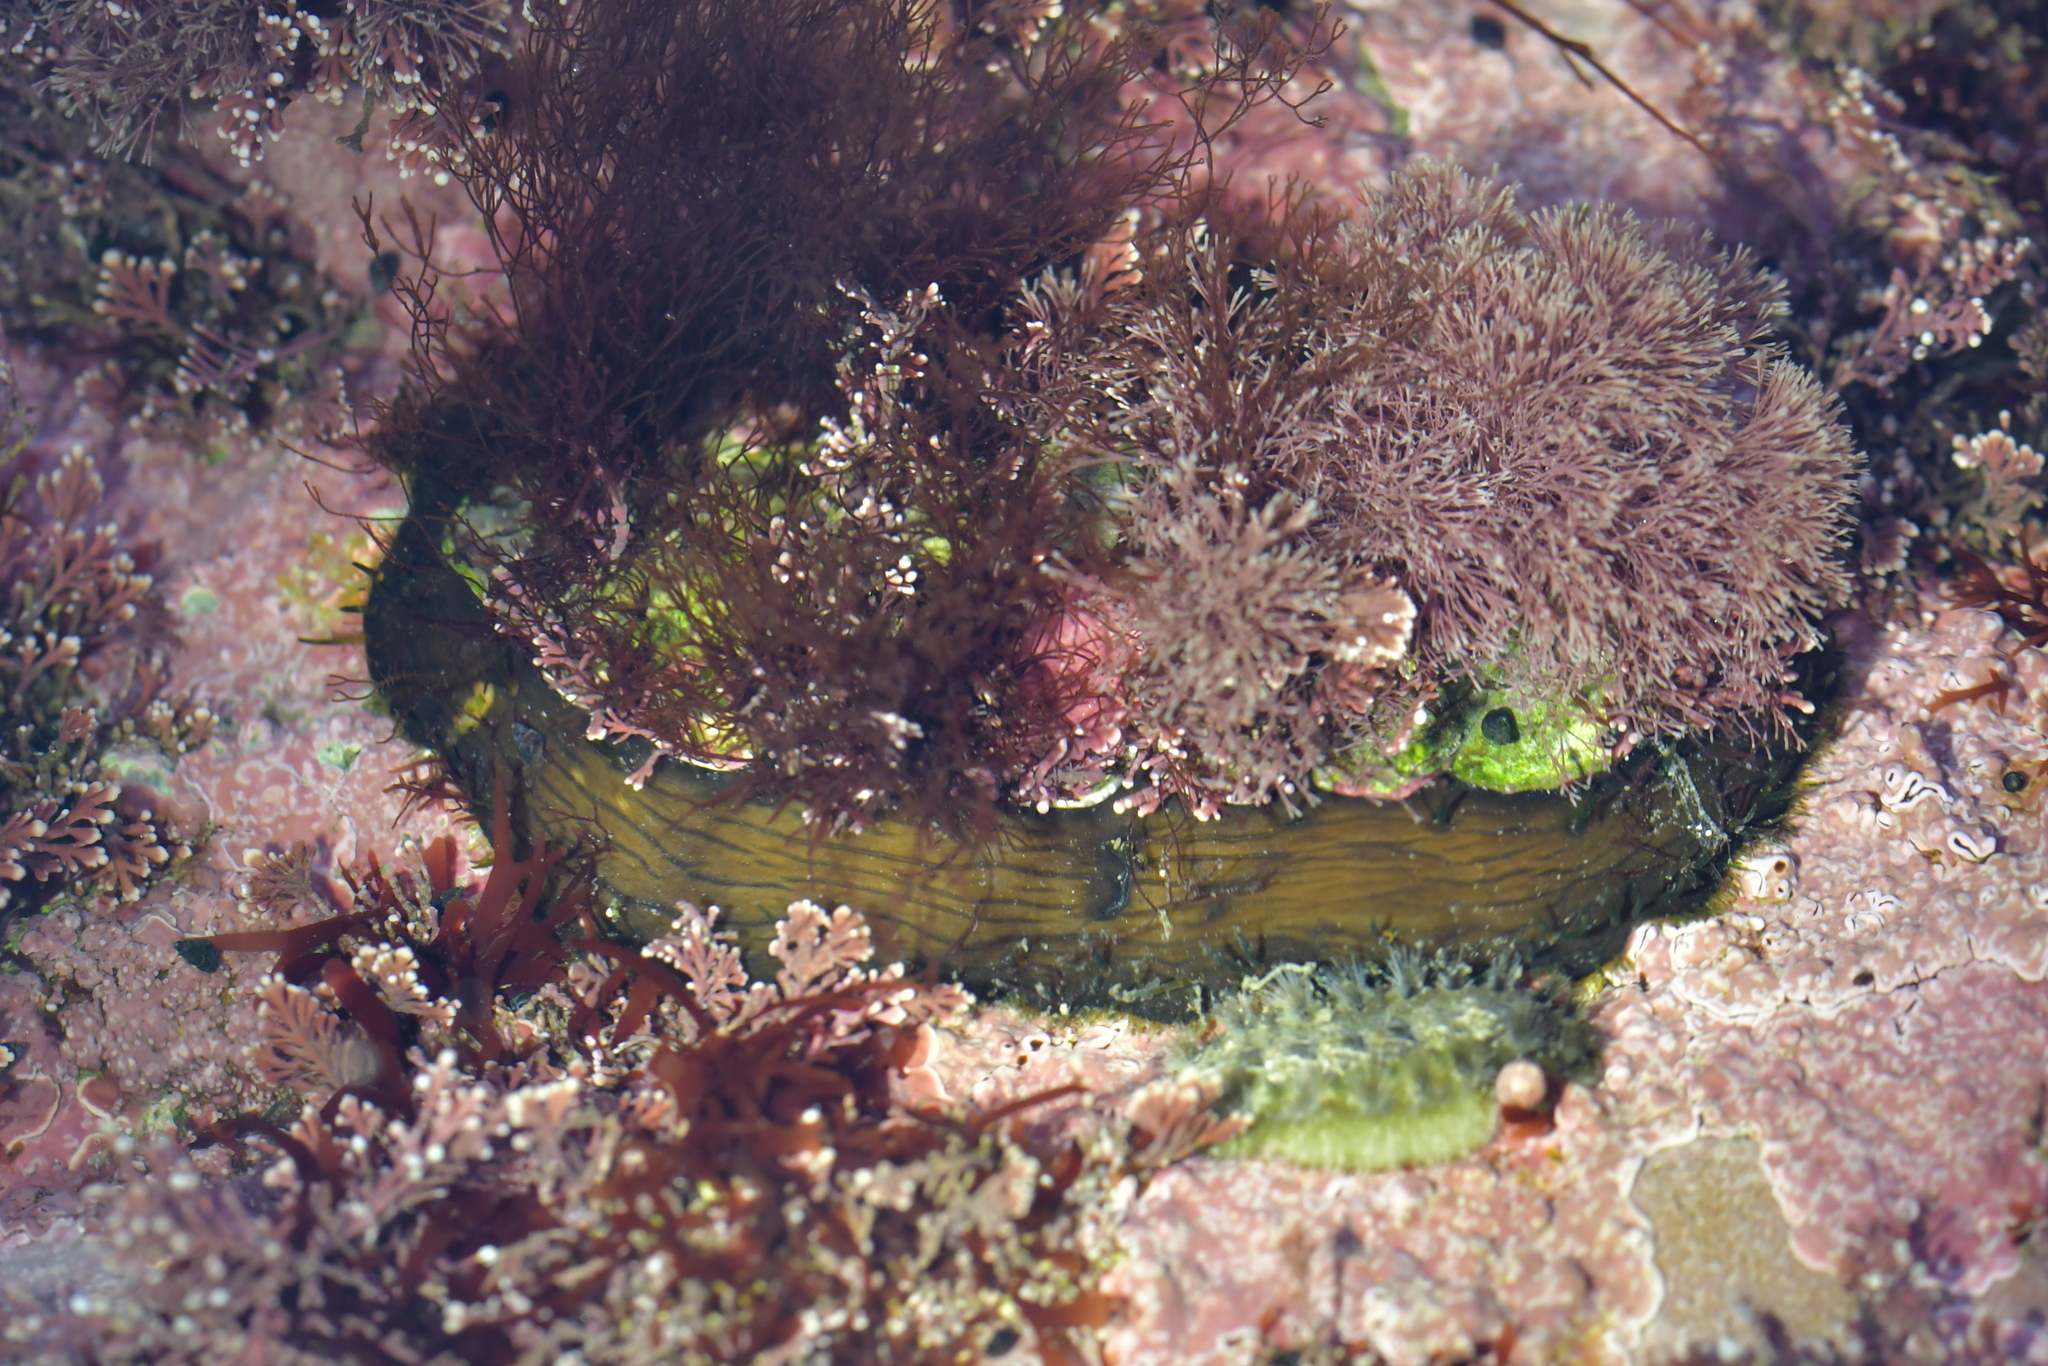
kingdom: Animalia
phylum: Mollusca
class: Polyplacophora
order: Chitonida
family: Mopaliidae
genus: Plaxiphora
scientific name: Plaxiphora biramosa
